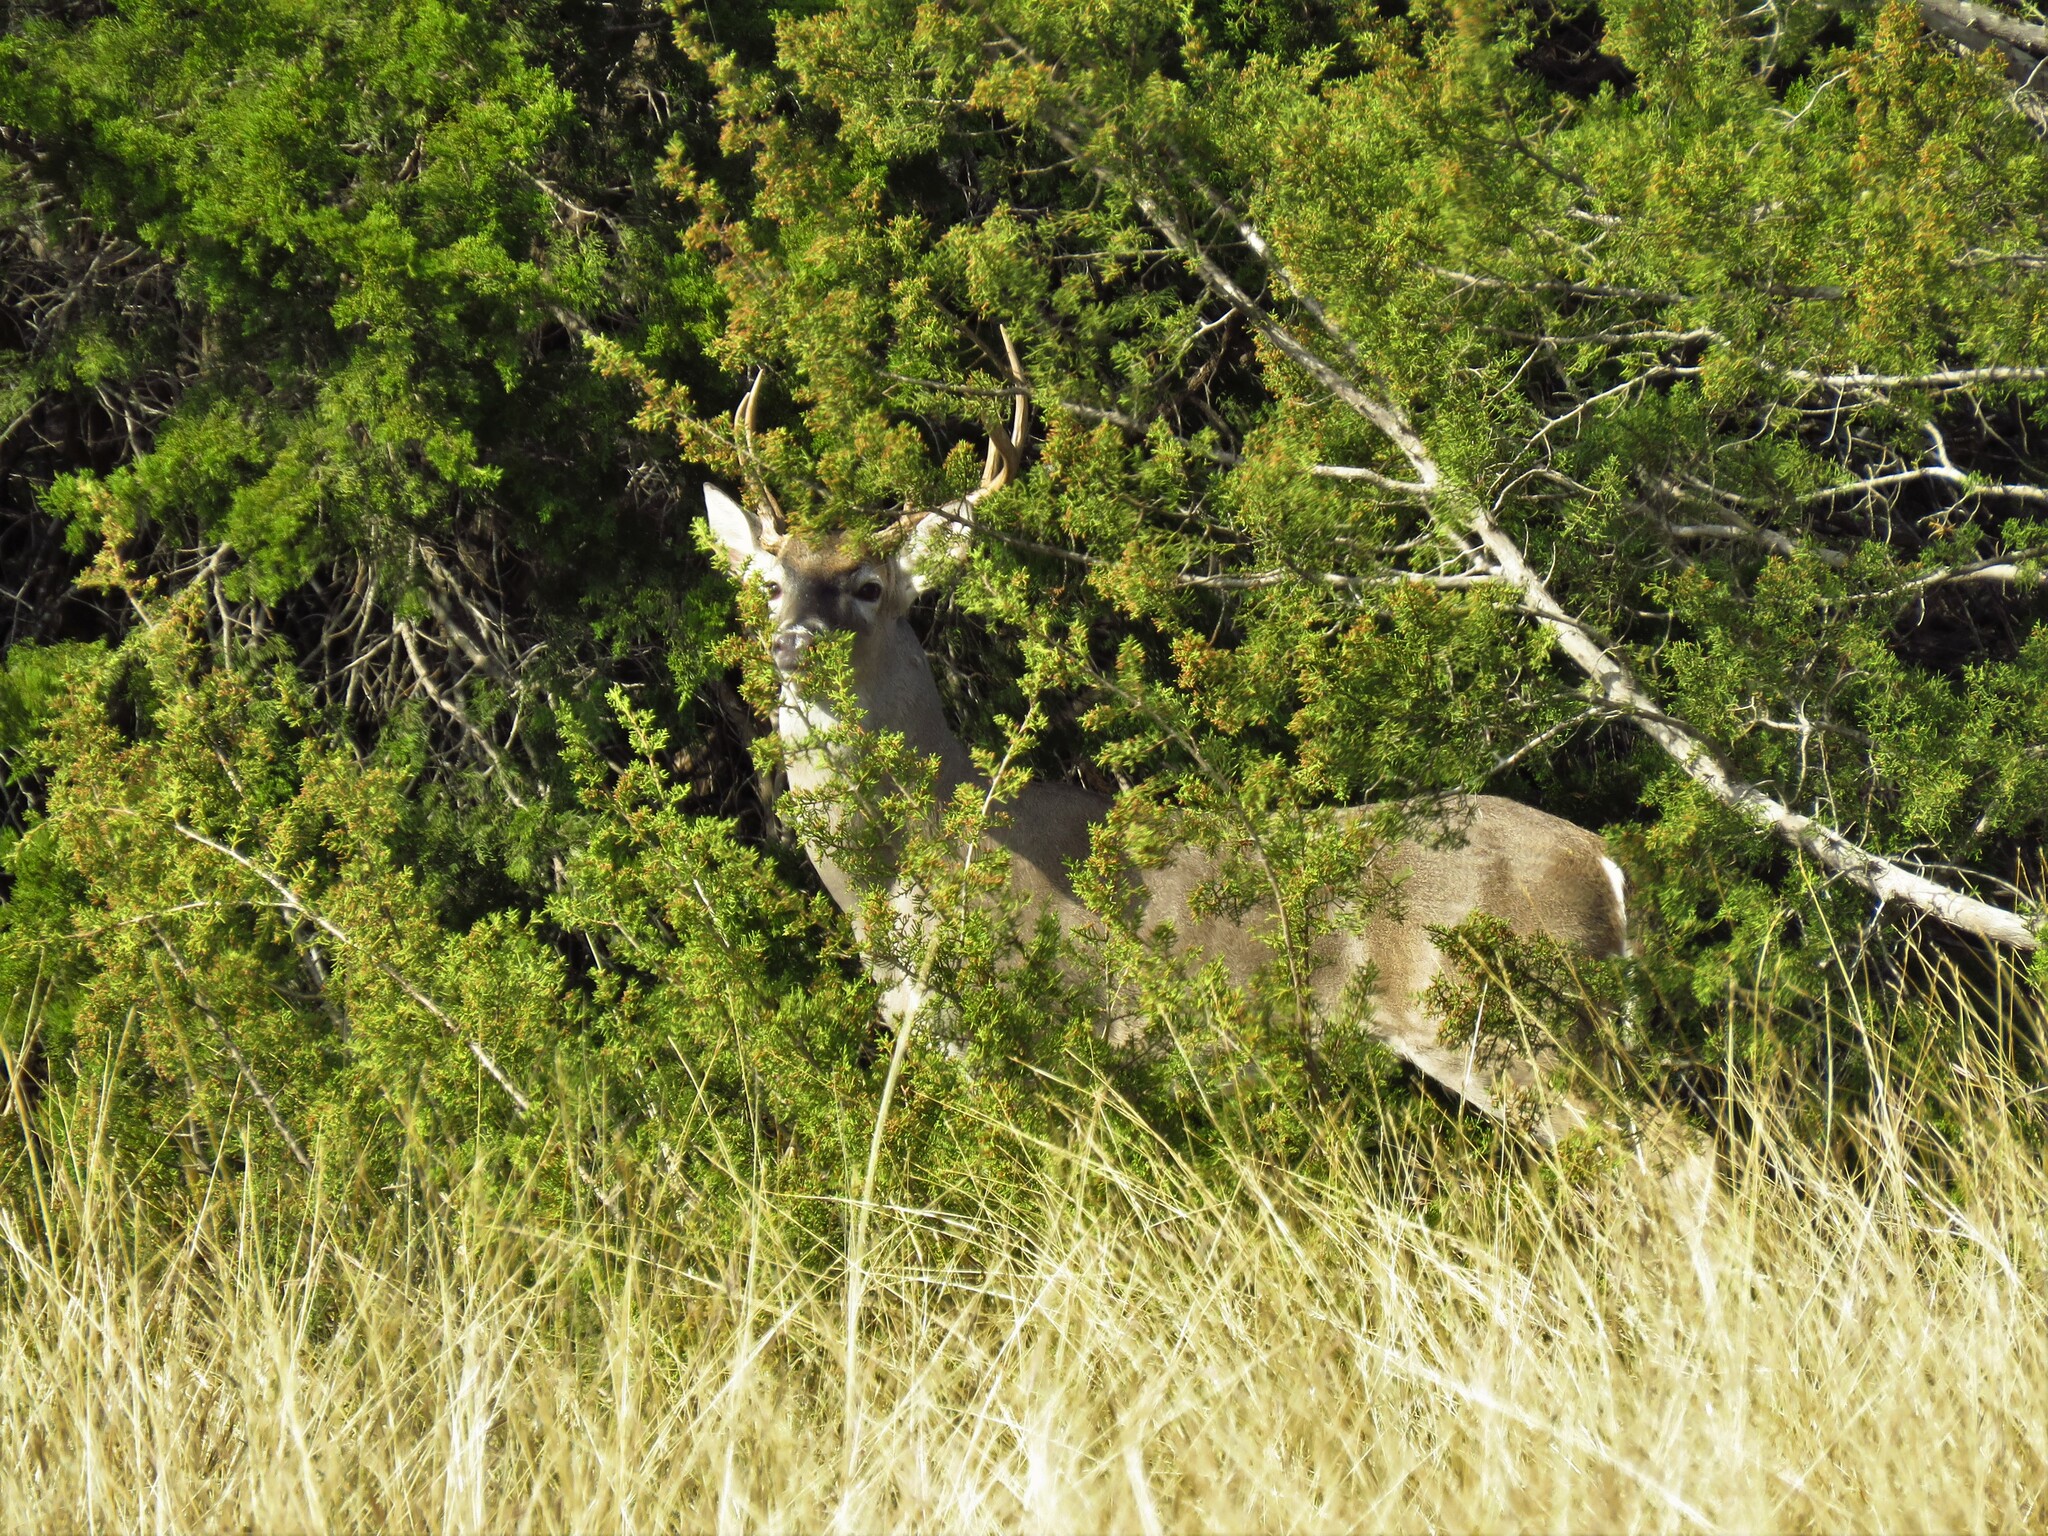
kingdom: Animalia
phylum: Chordata
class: Mammalia
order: Artiodactyla
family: Cervidae
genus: Odocoileus
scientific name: Odocoileus virginianus
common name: White-tailed deer
